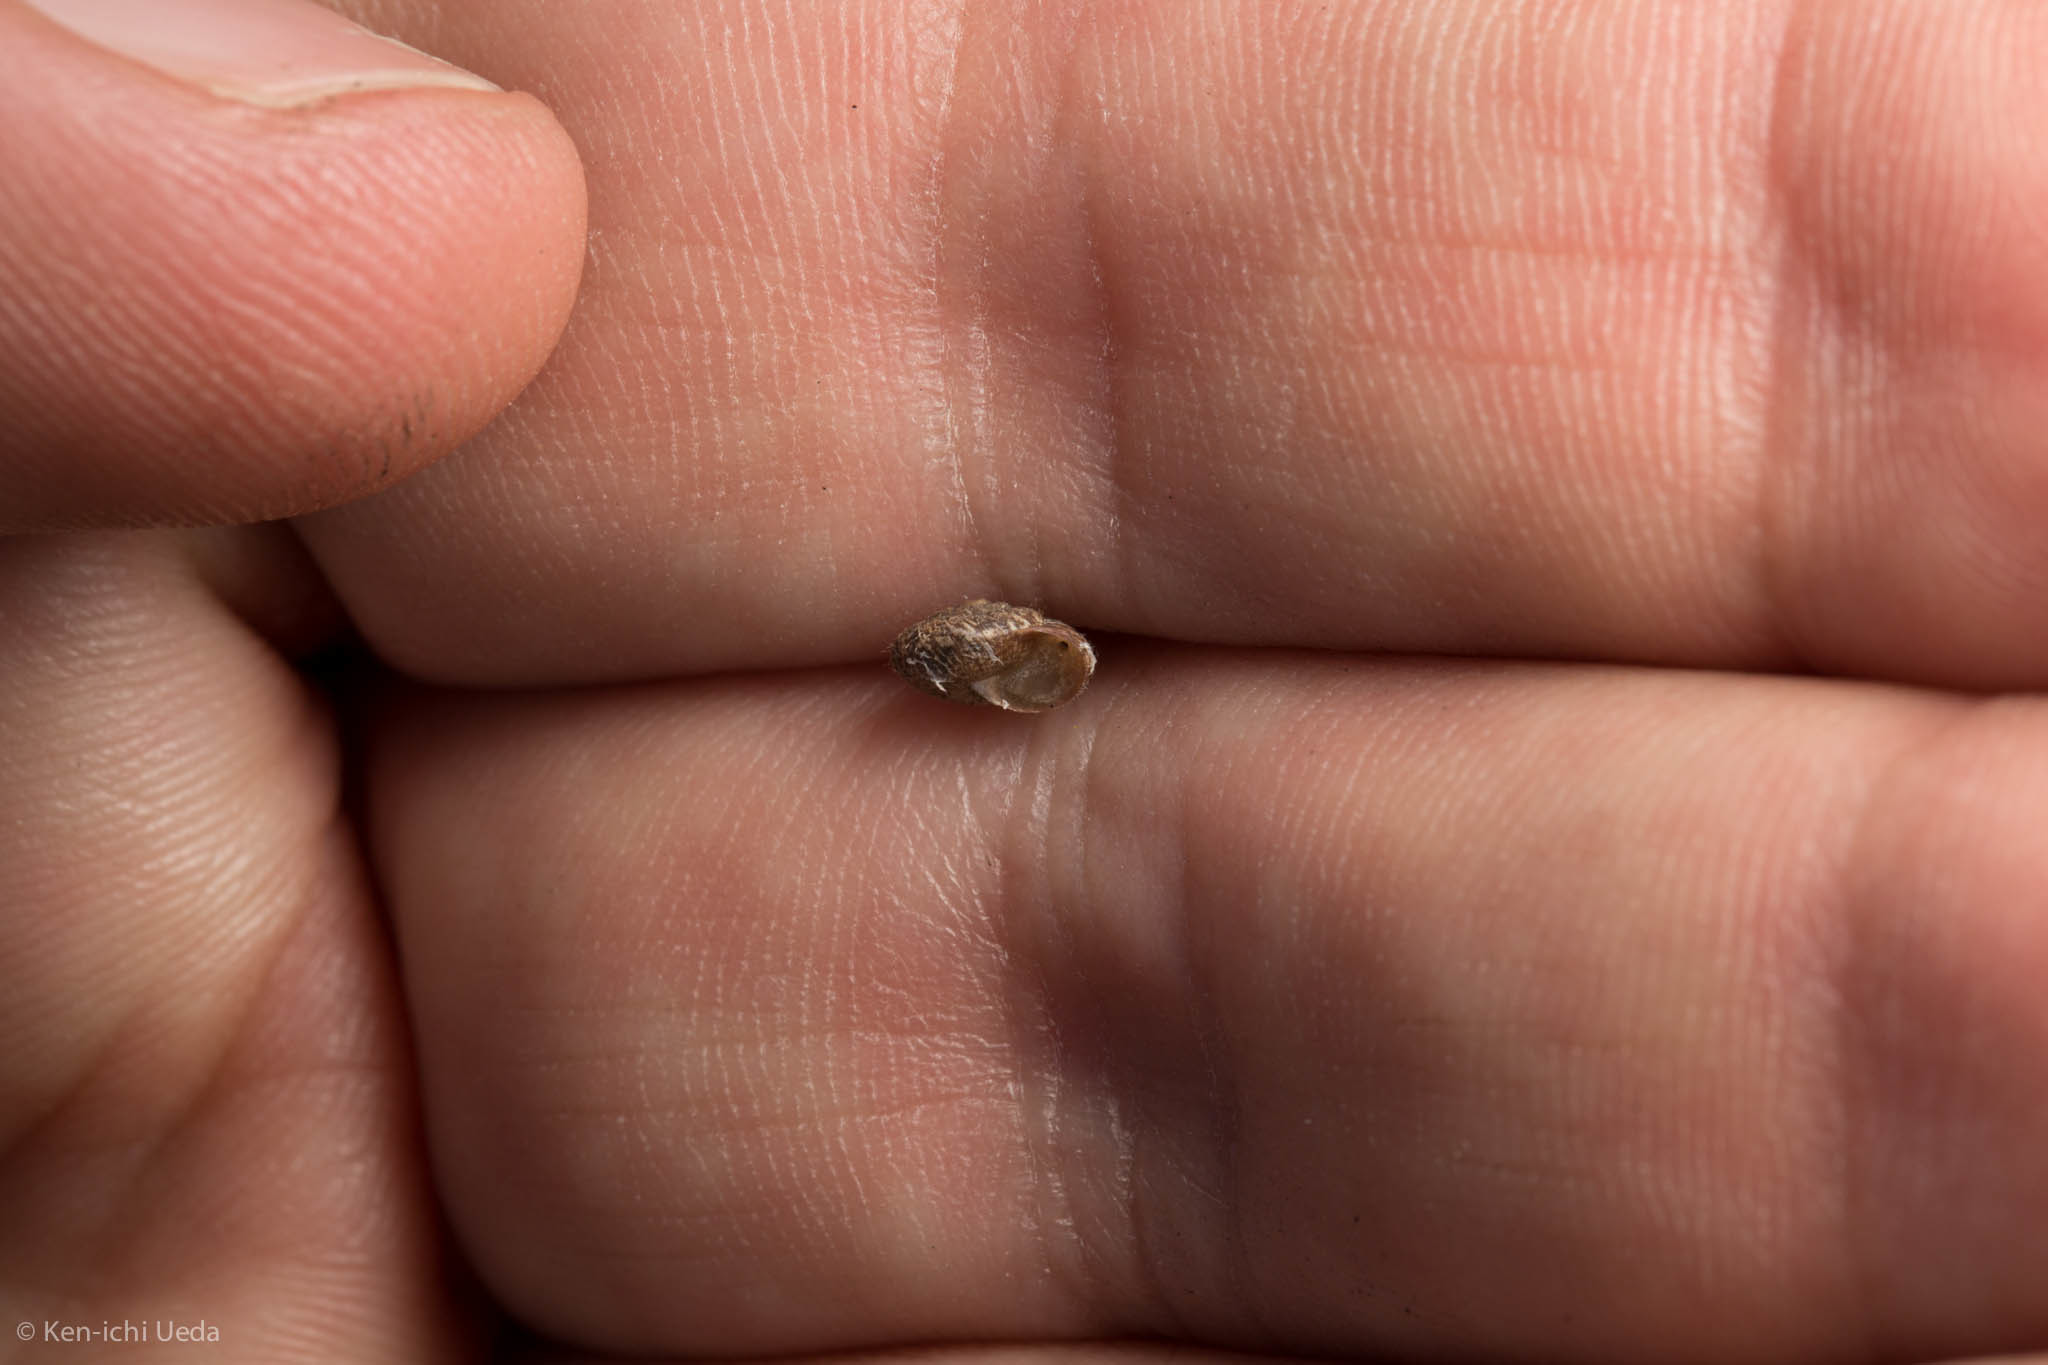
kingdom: Animalia
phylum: Mollusca
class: Gastropoda
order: Stylommatophora
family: Geomitridae
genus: Xerotricha
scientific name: Xerotricha conspurcata
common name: Snail
